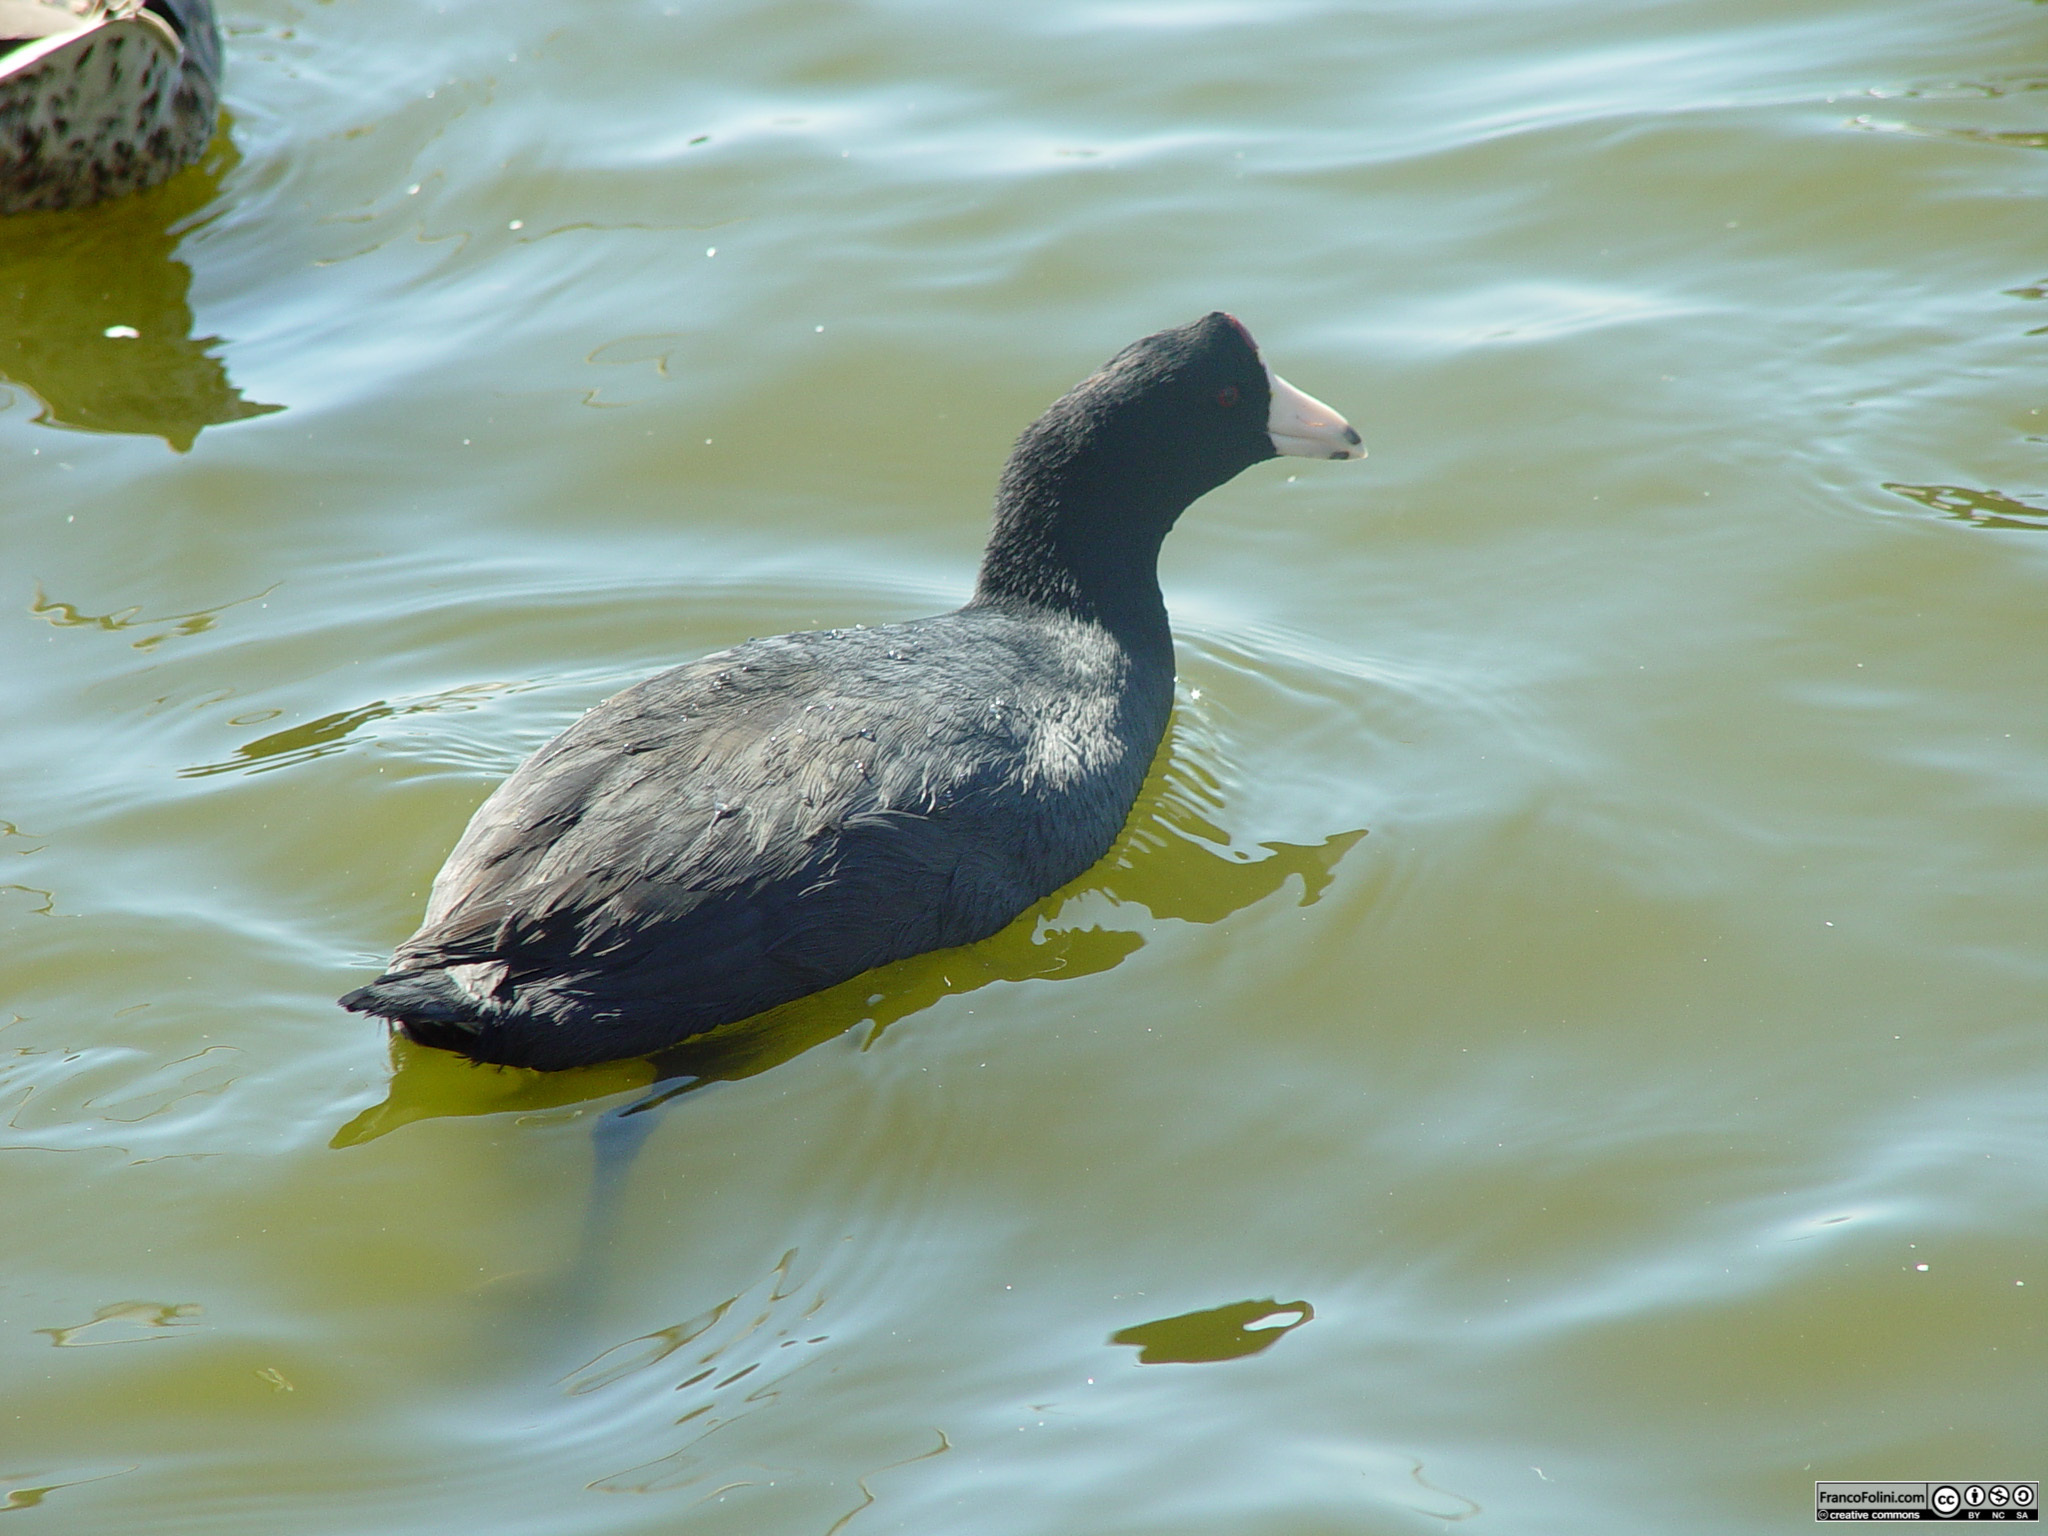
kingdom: Animalia
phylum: Chordata
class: Aves
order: Gruiformes
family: Rallidae
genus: Fulica
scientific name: Fulica americana
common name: American coot
